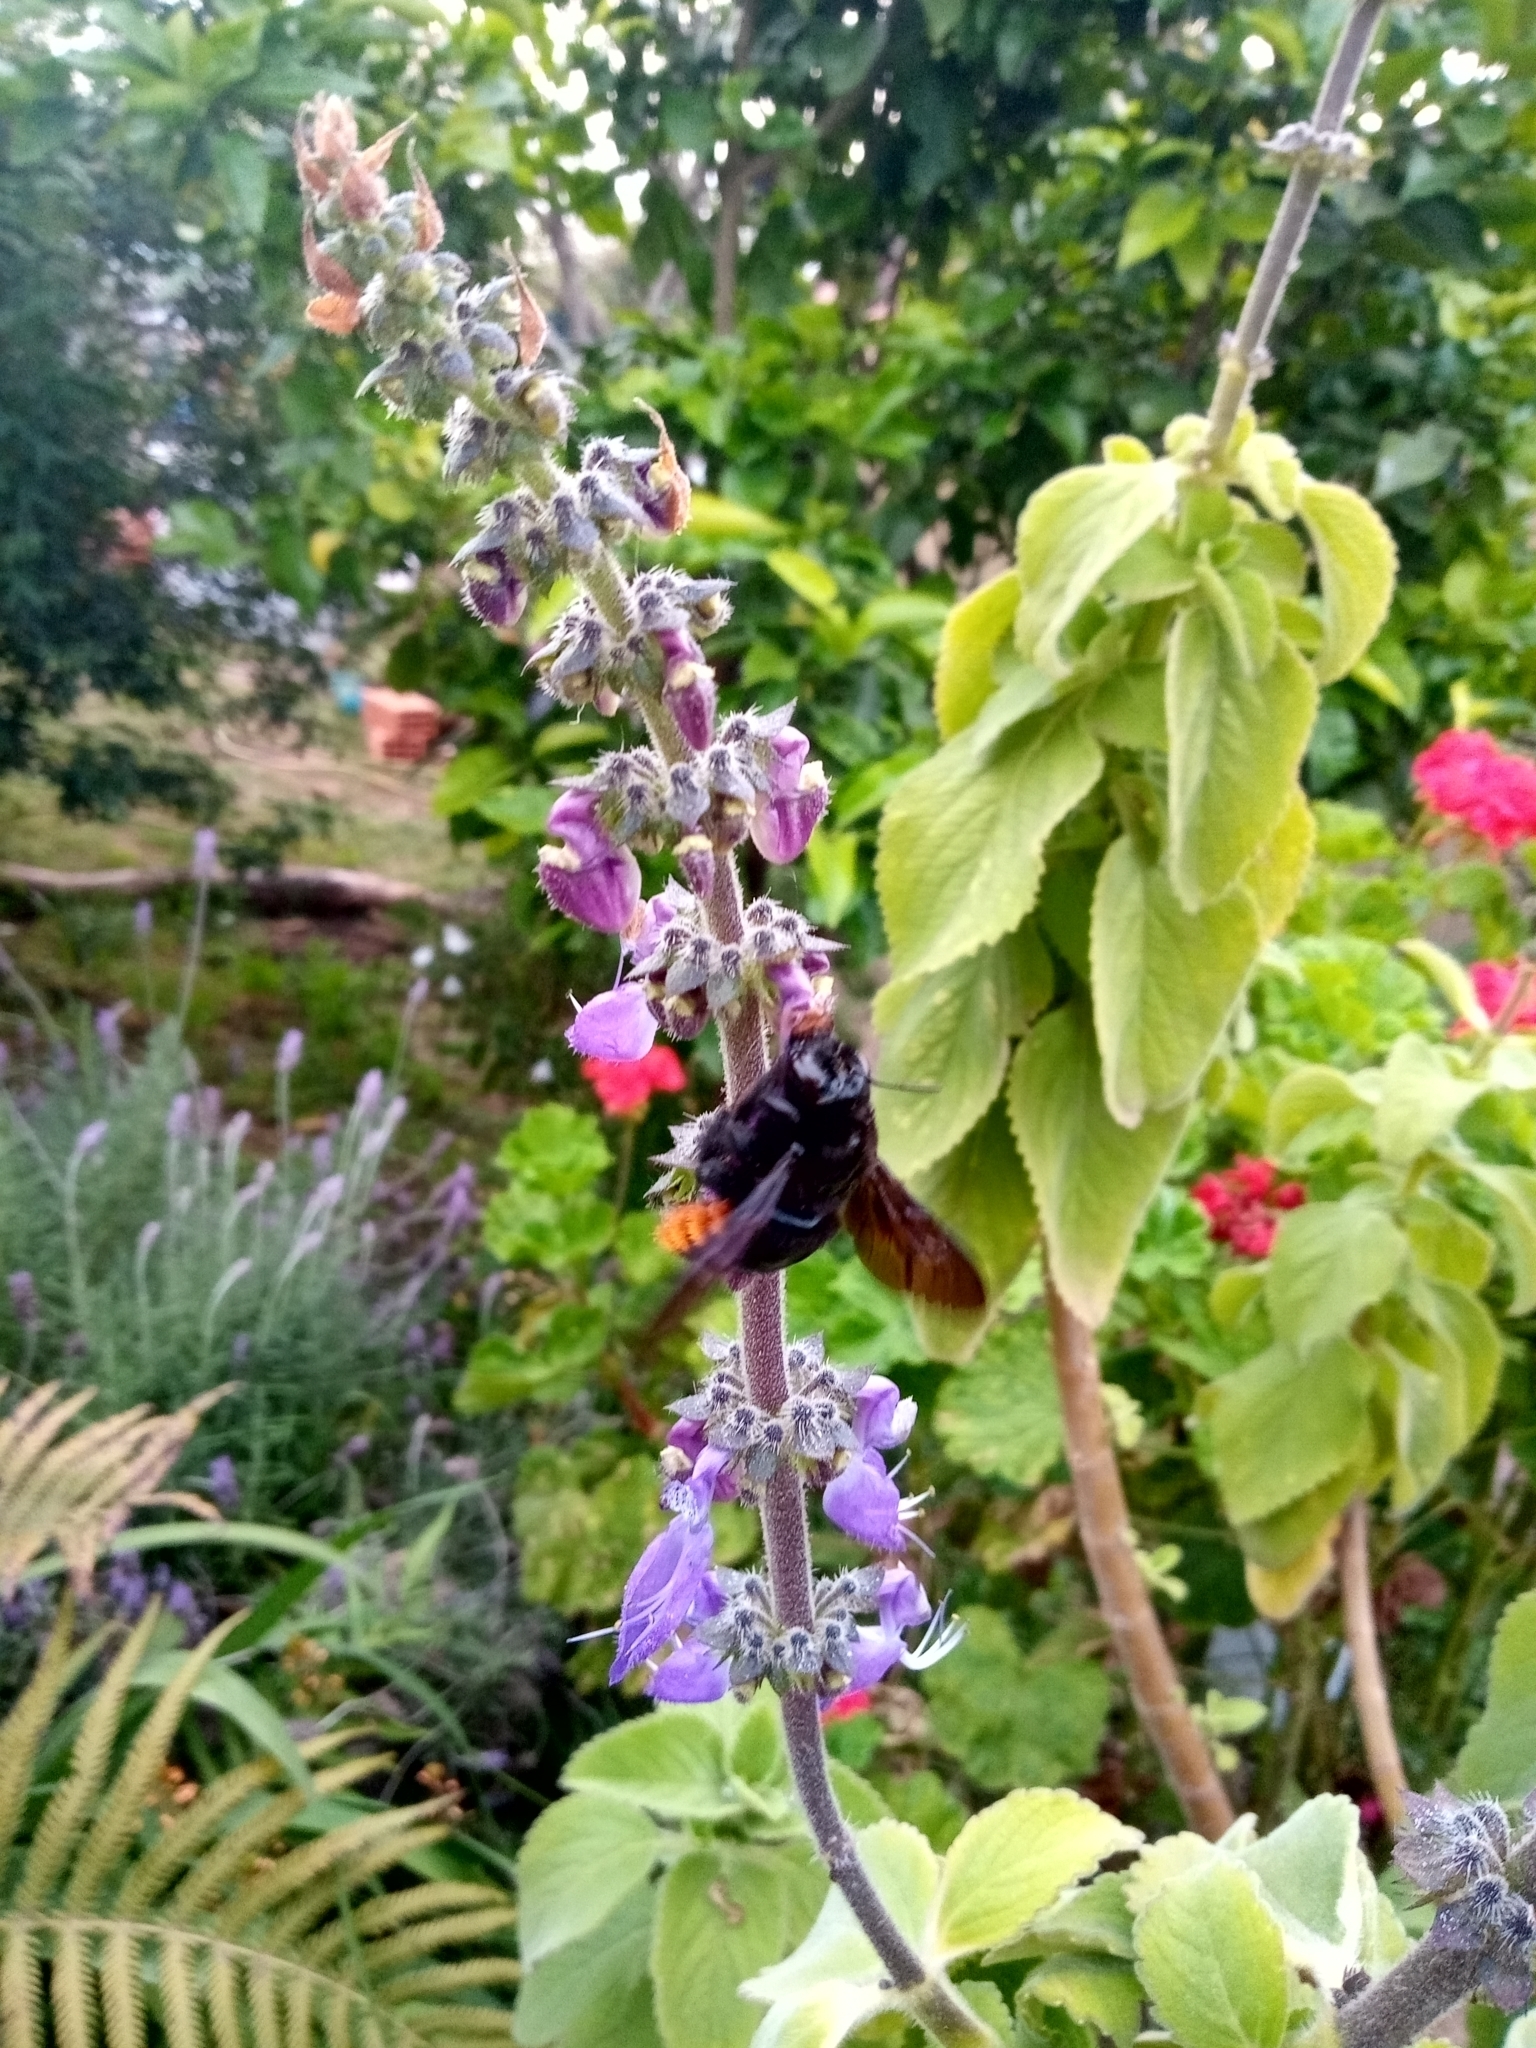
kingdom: Animalia
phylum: Arthropoda
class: Insecta
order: Hymenoptera
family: Apidae
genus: Xylocopa
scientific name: Xylocopa augusti
